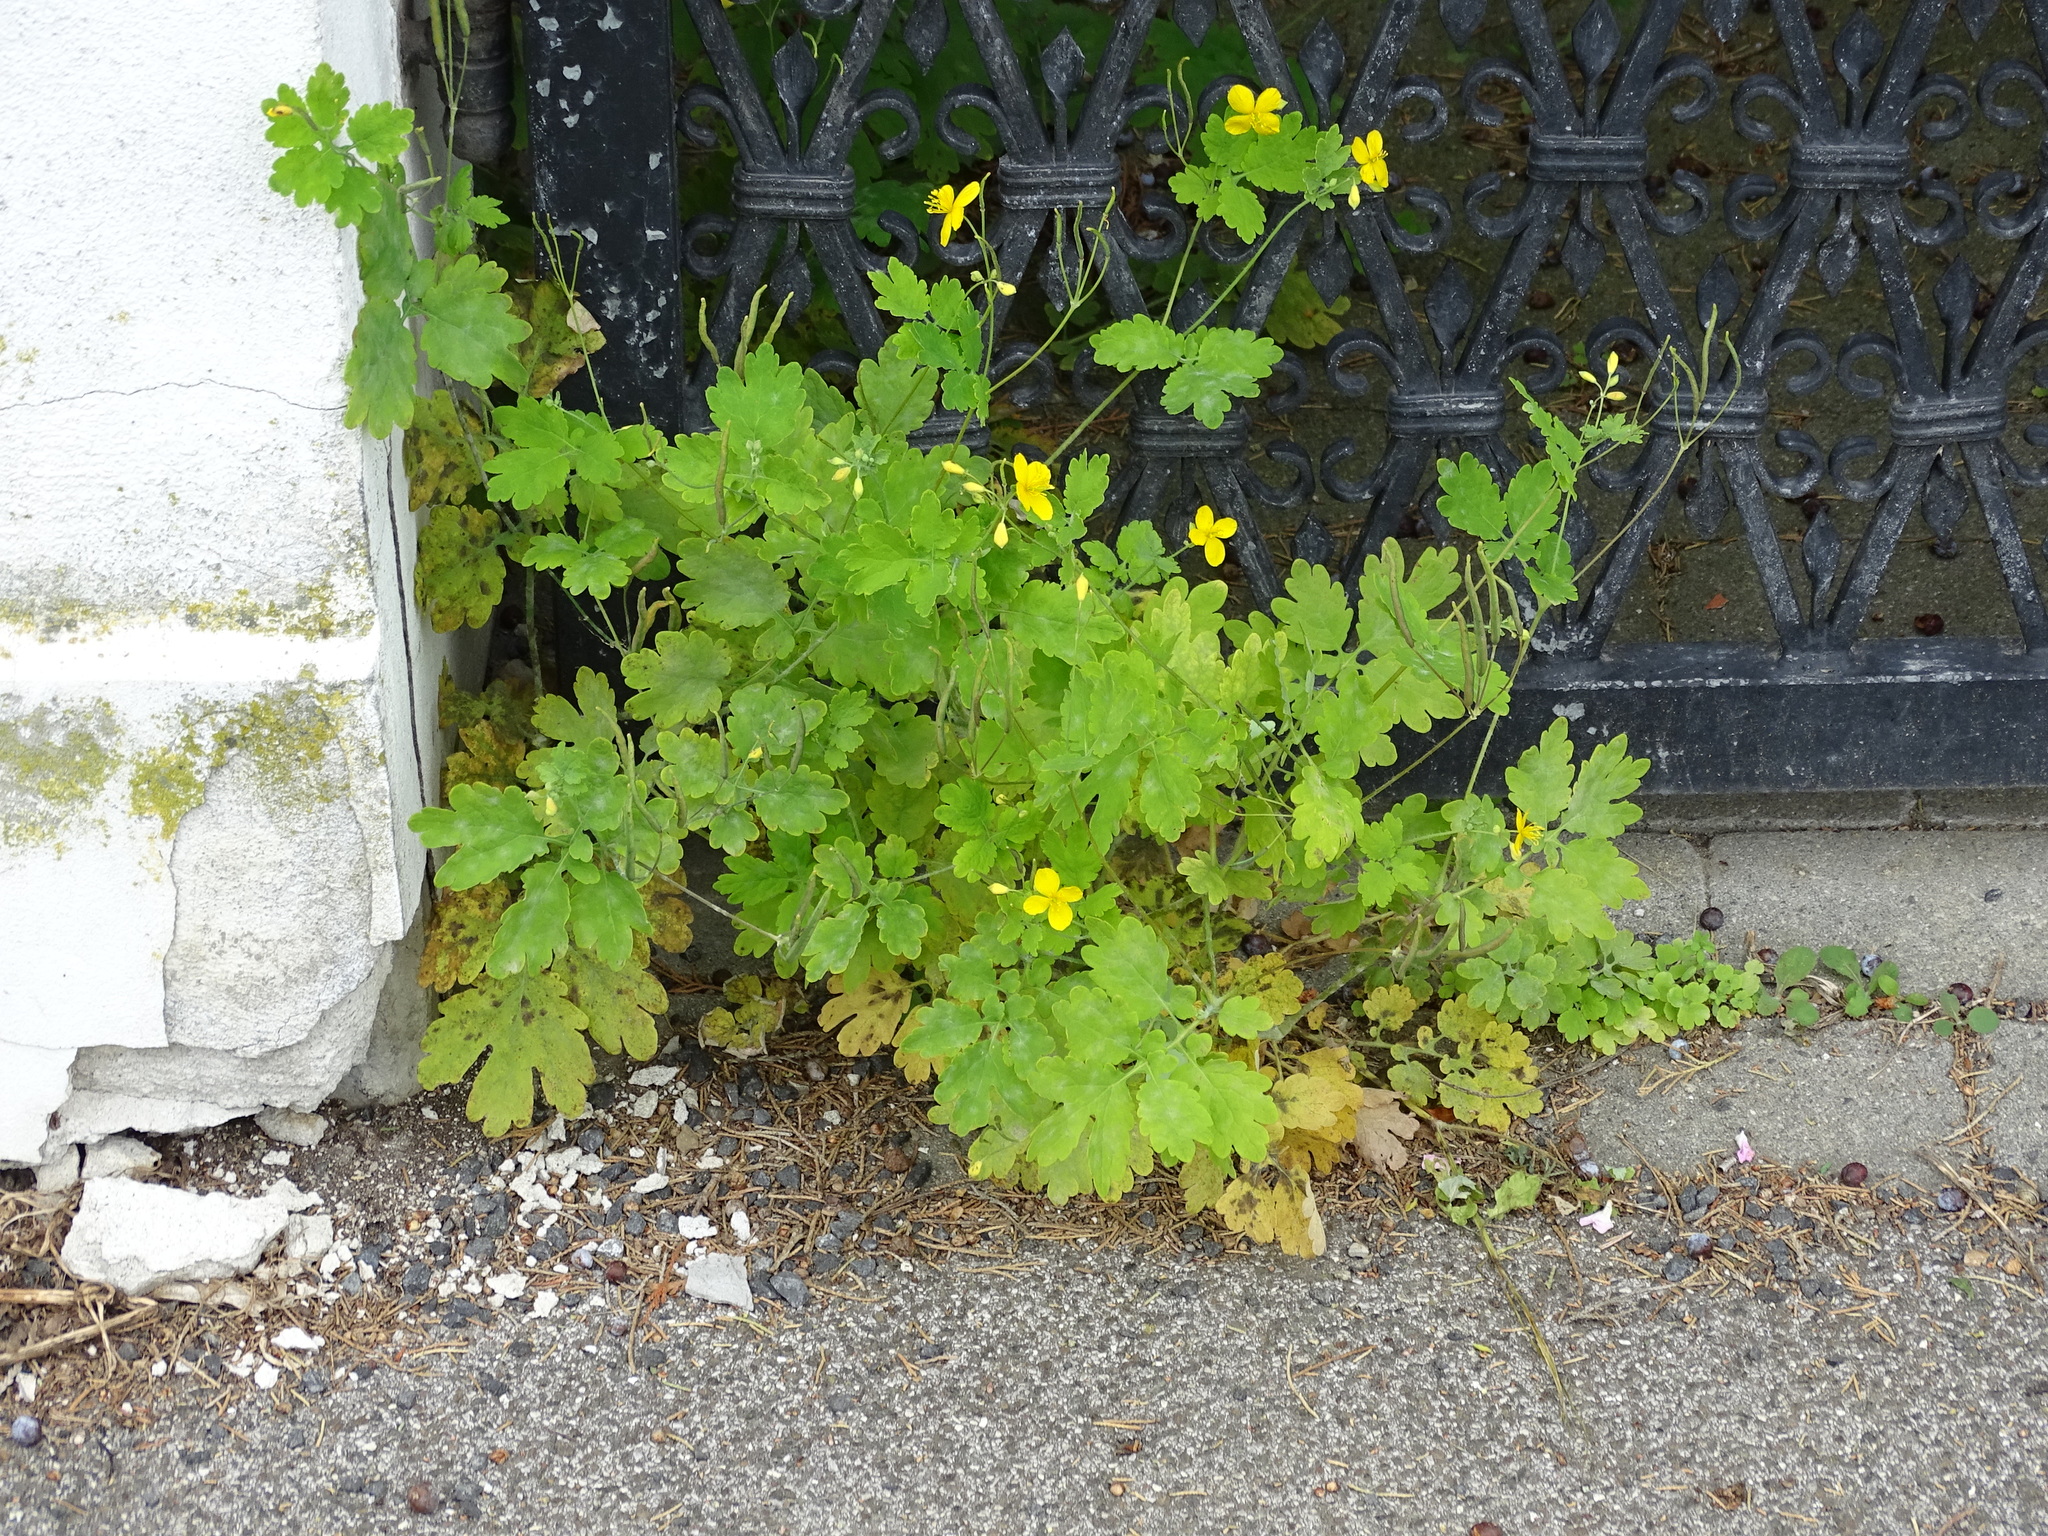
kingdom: Plantae
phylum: Tracheophyta
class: Magnoliopsida
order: Ranunculales
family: Papaveraceae
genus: Chelidonium
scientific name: Chelidonium majus
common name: Greater celandine
